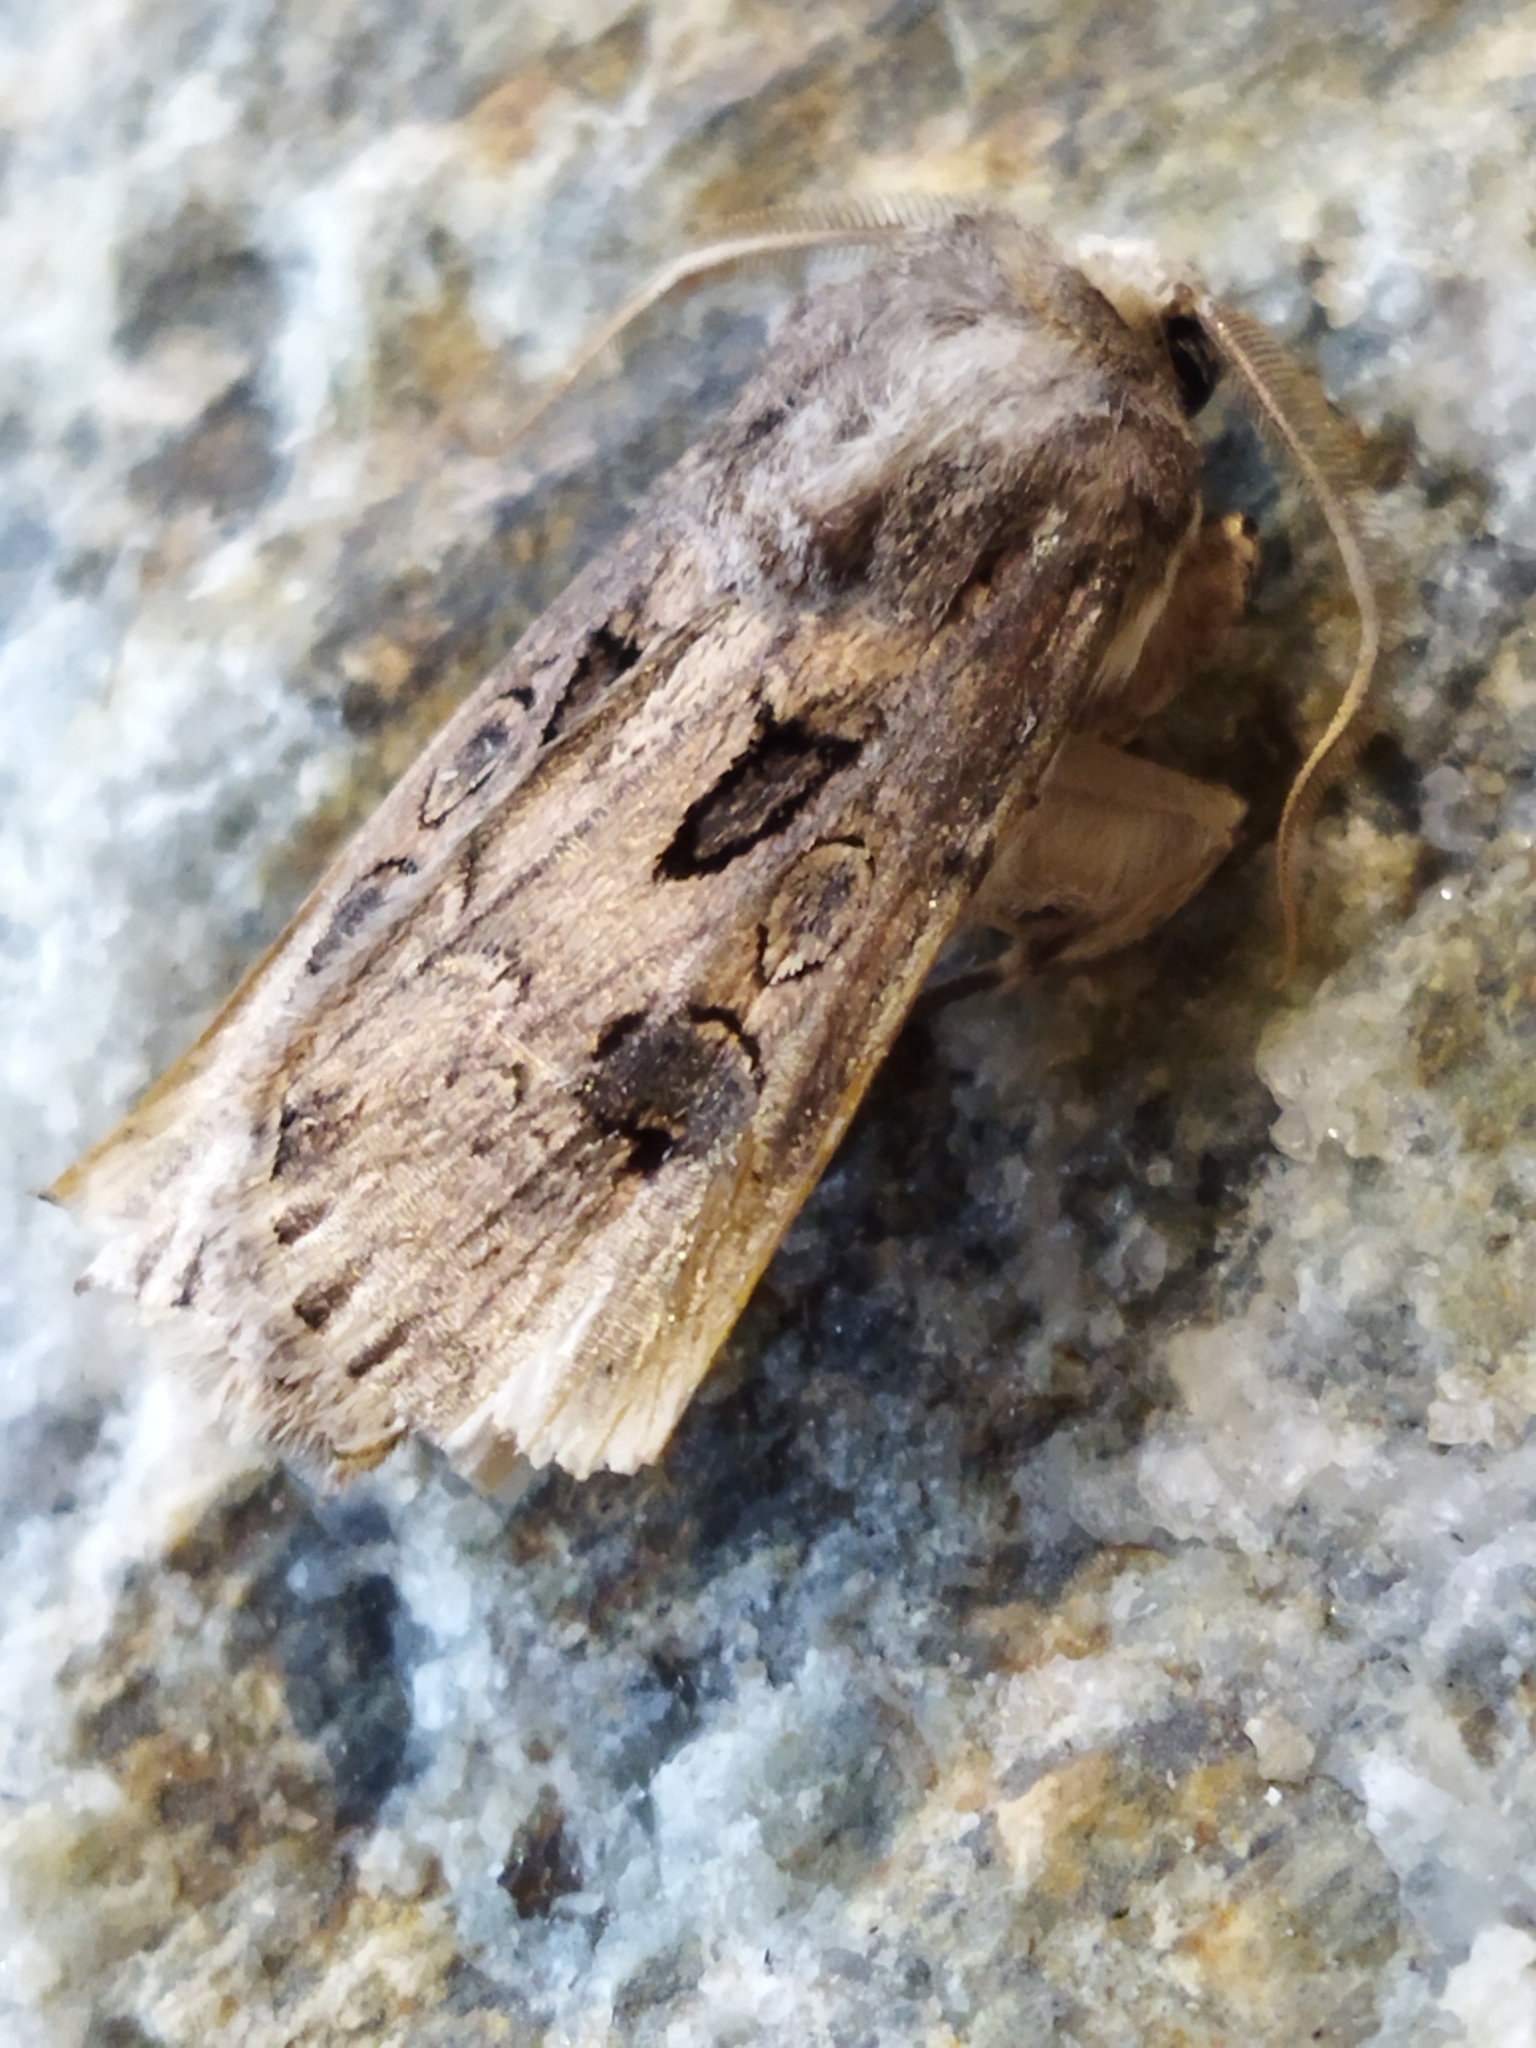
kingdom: Animalia
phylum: Arthropoda
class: Insecta
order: Lepidoptera
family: Noctuidae
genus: Agrotis
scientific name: Agrotis bigramma
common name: Great dart
